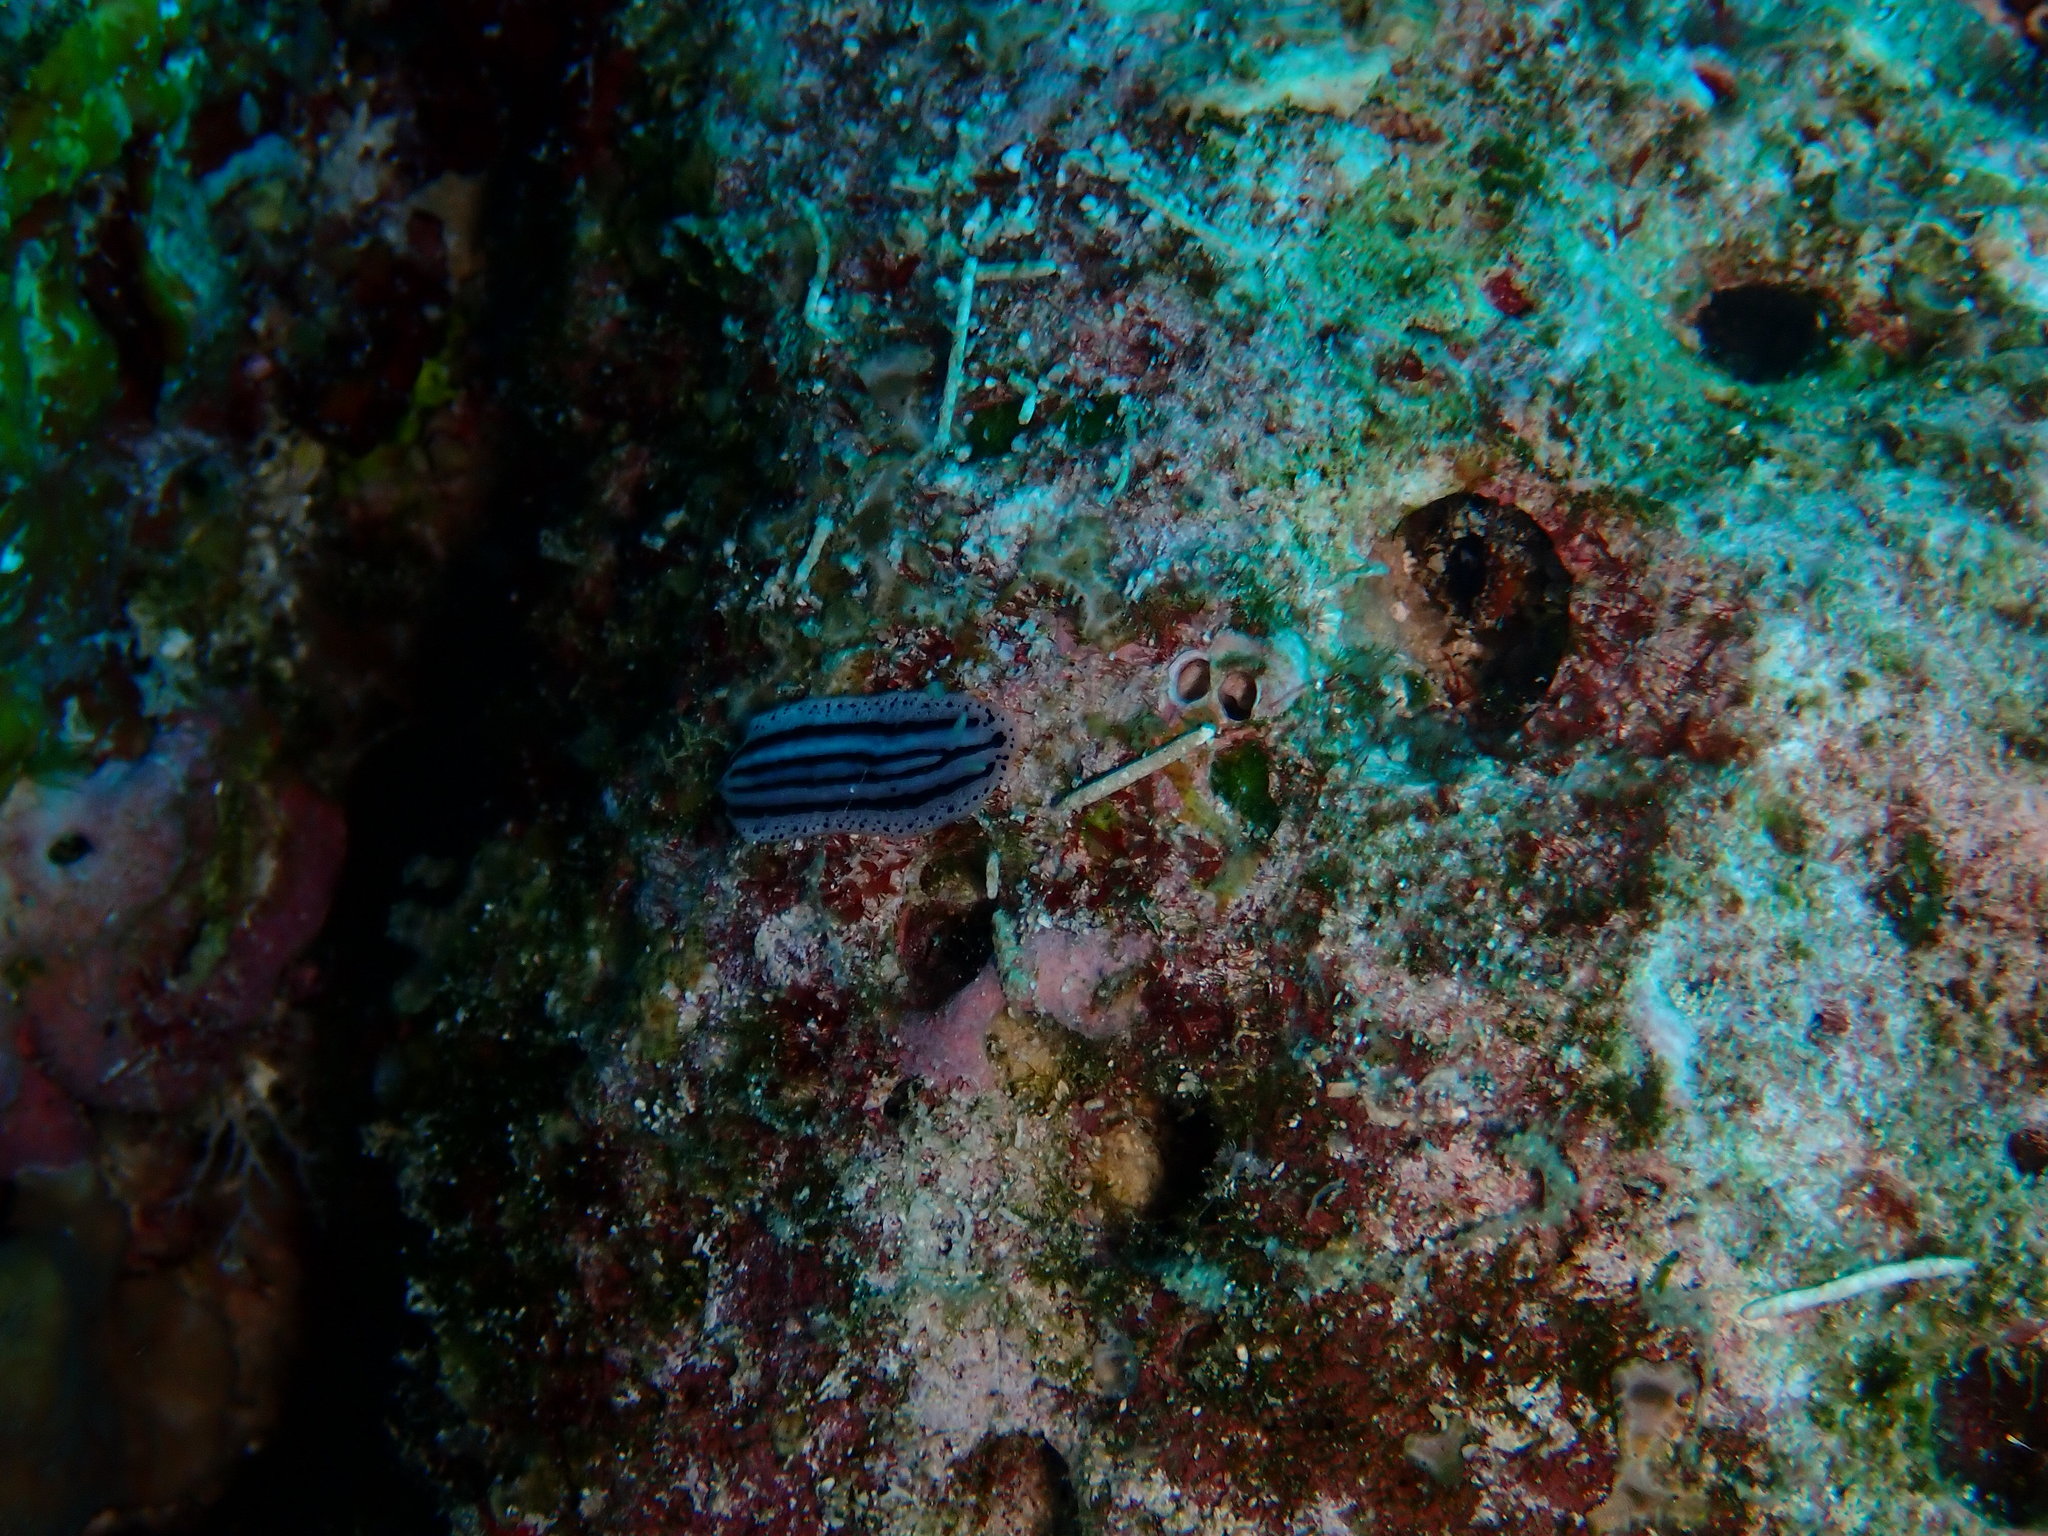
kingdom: Animalia
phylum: Mollusca
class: Gastropoda
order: Nudibranchia
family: Phyllidiidae
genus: Phyllidiopsis
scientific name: Phyllidiopsis xishaensis
